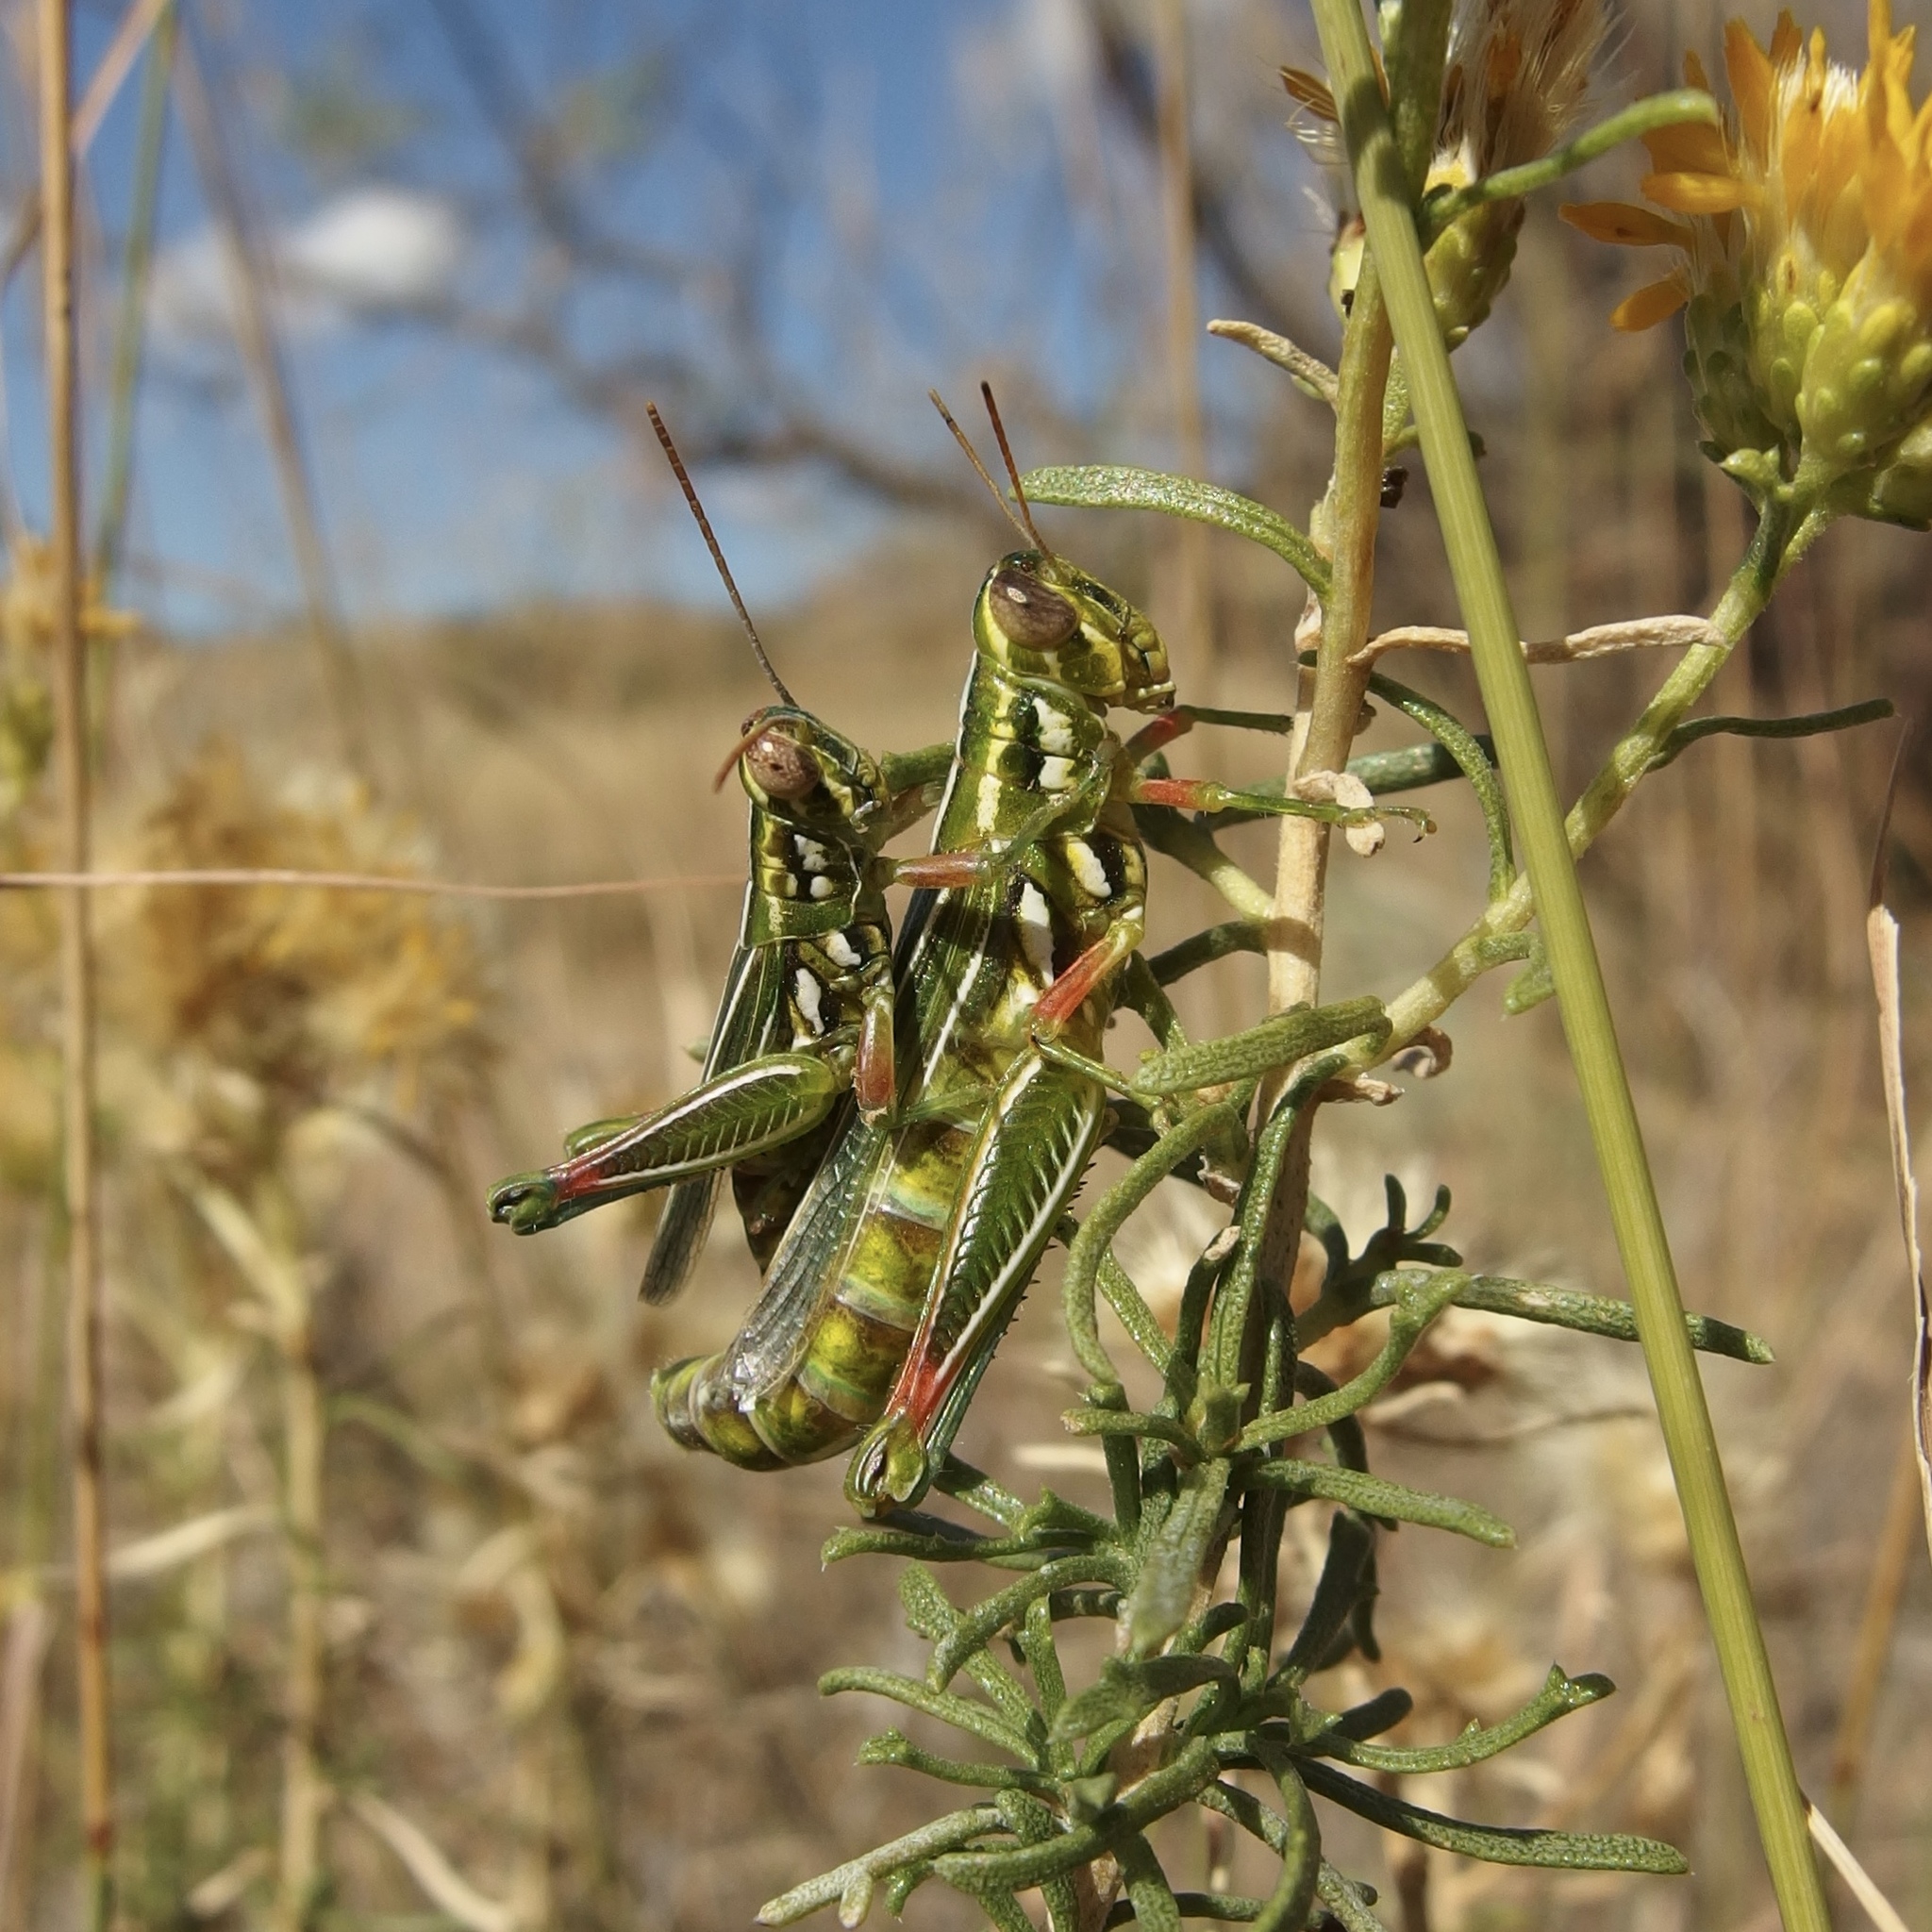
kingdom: Animalia
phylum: Arthropoda
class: Insecta
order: Orthoptera
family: Acrididae
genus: Hesperotettix
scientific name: Hesperotettix viridis
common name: Meadow purple-striped grasshopper
